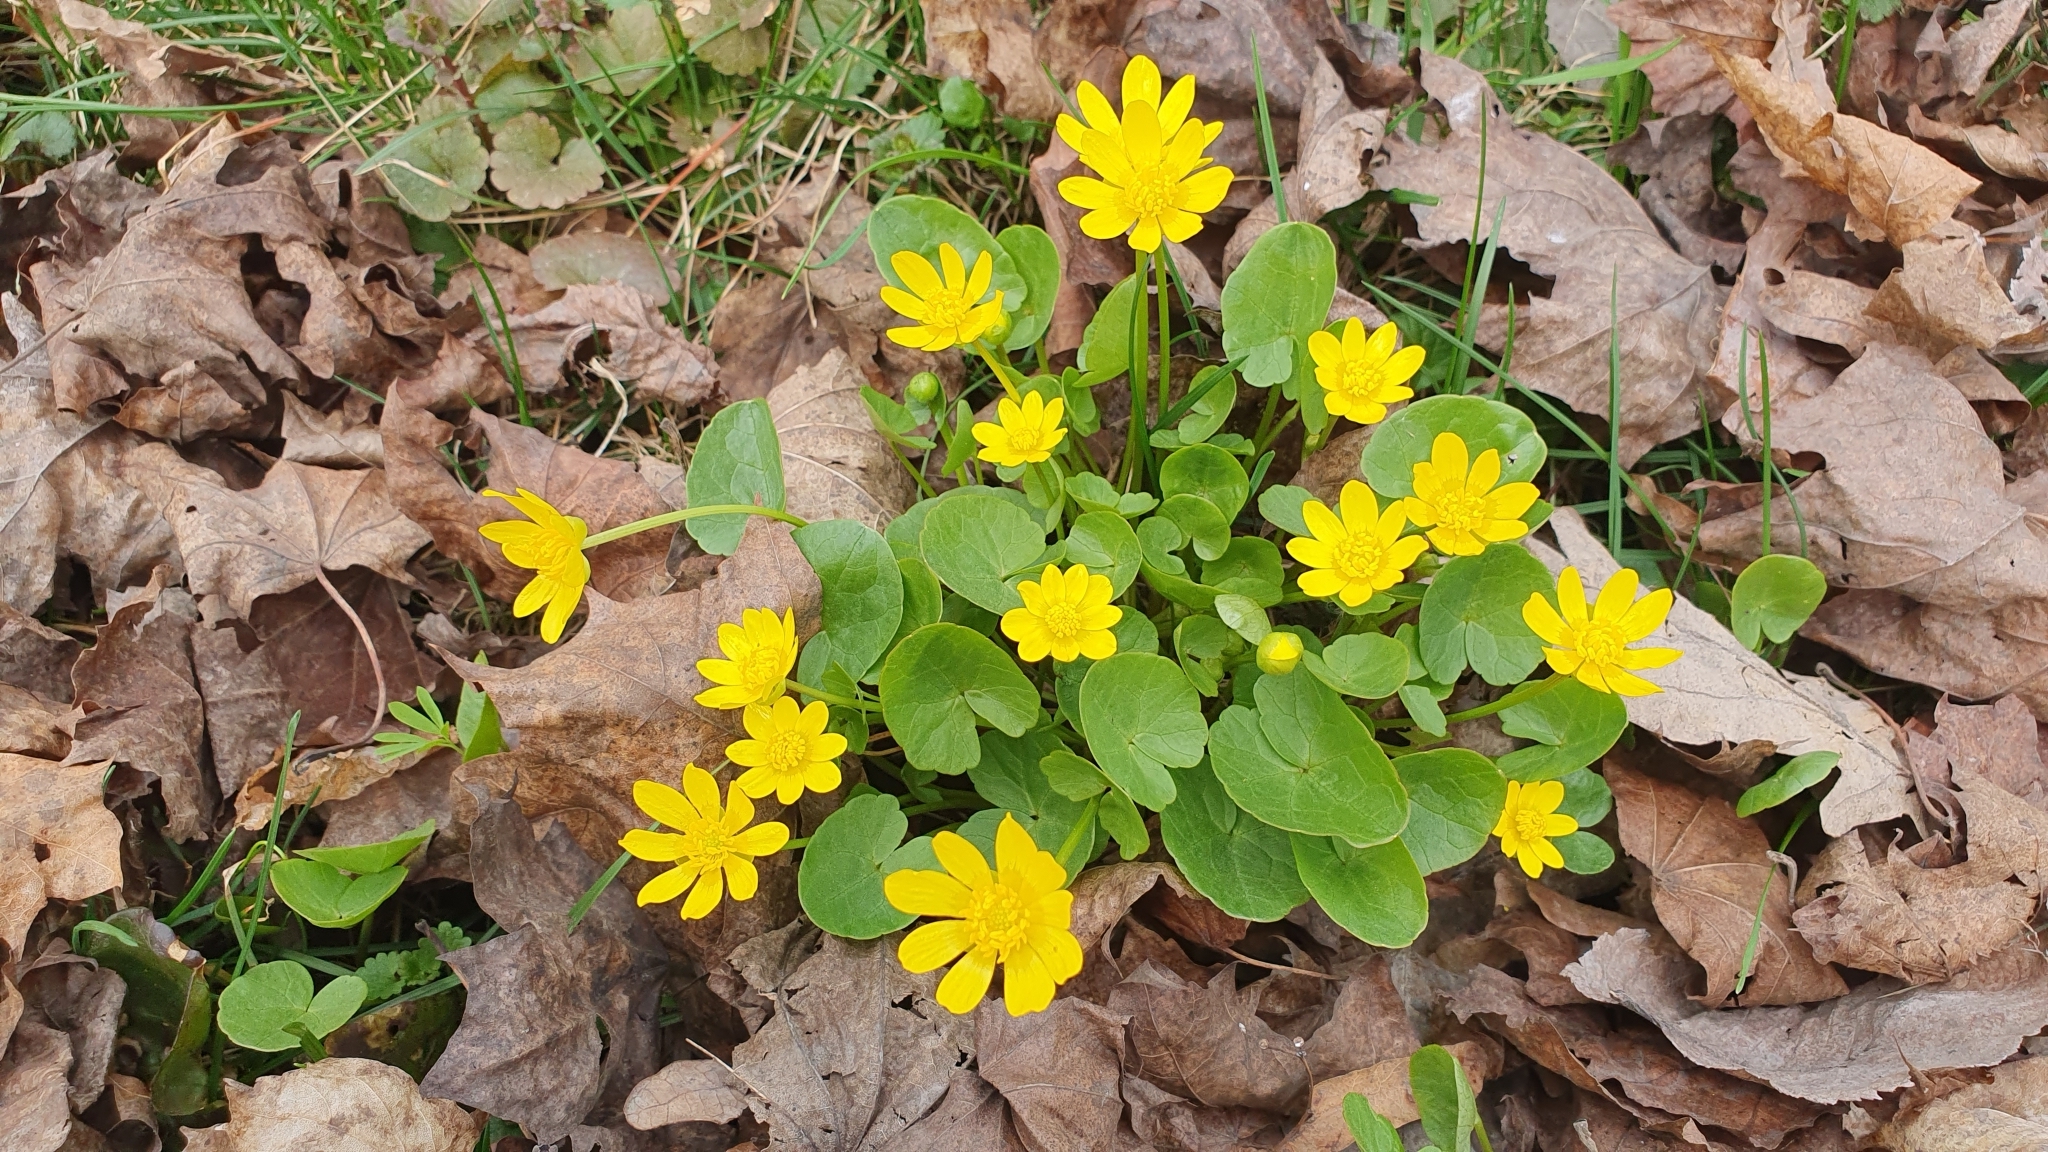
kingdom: Plantae
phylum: Tracheophyta
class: Magnoliopsida
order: Ranunculales
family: Ranunculaceae
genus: Ficaria
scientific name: Ficaria verna
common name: Lesser celandine
